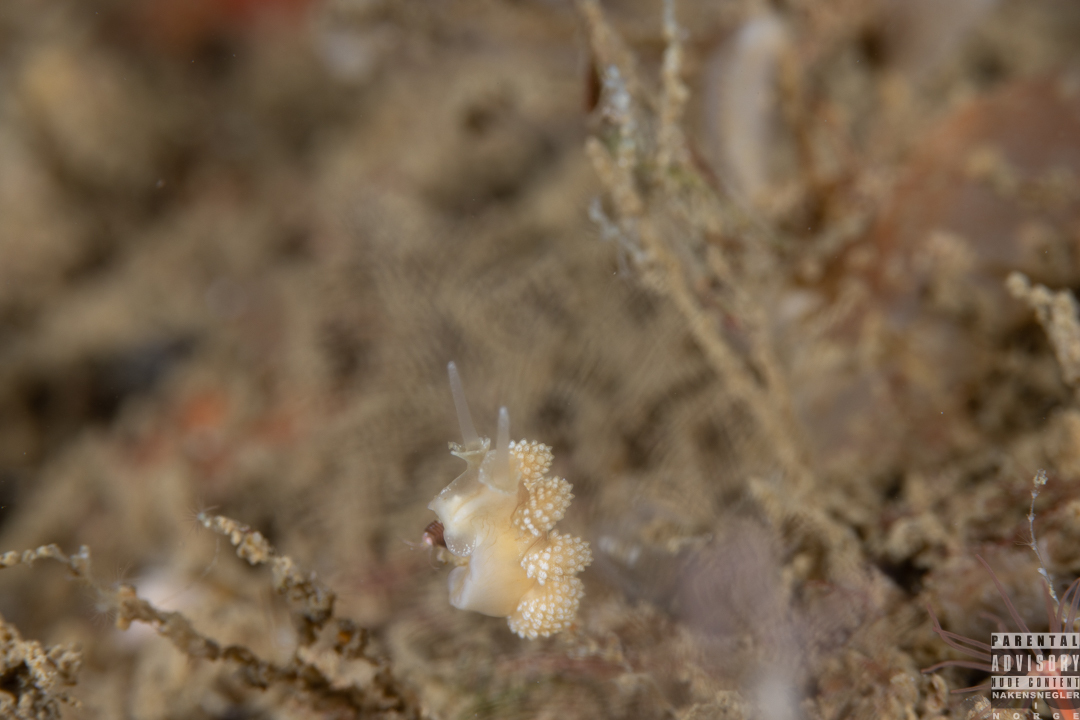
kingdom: Animalia
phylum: Mollusca
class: Gastropoda
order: Nudibranchia
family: Dotidae
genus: Doto
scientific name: Doto fragilis
